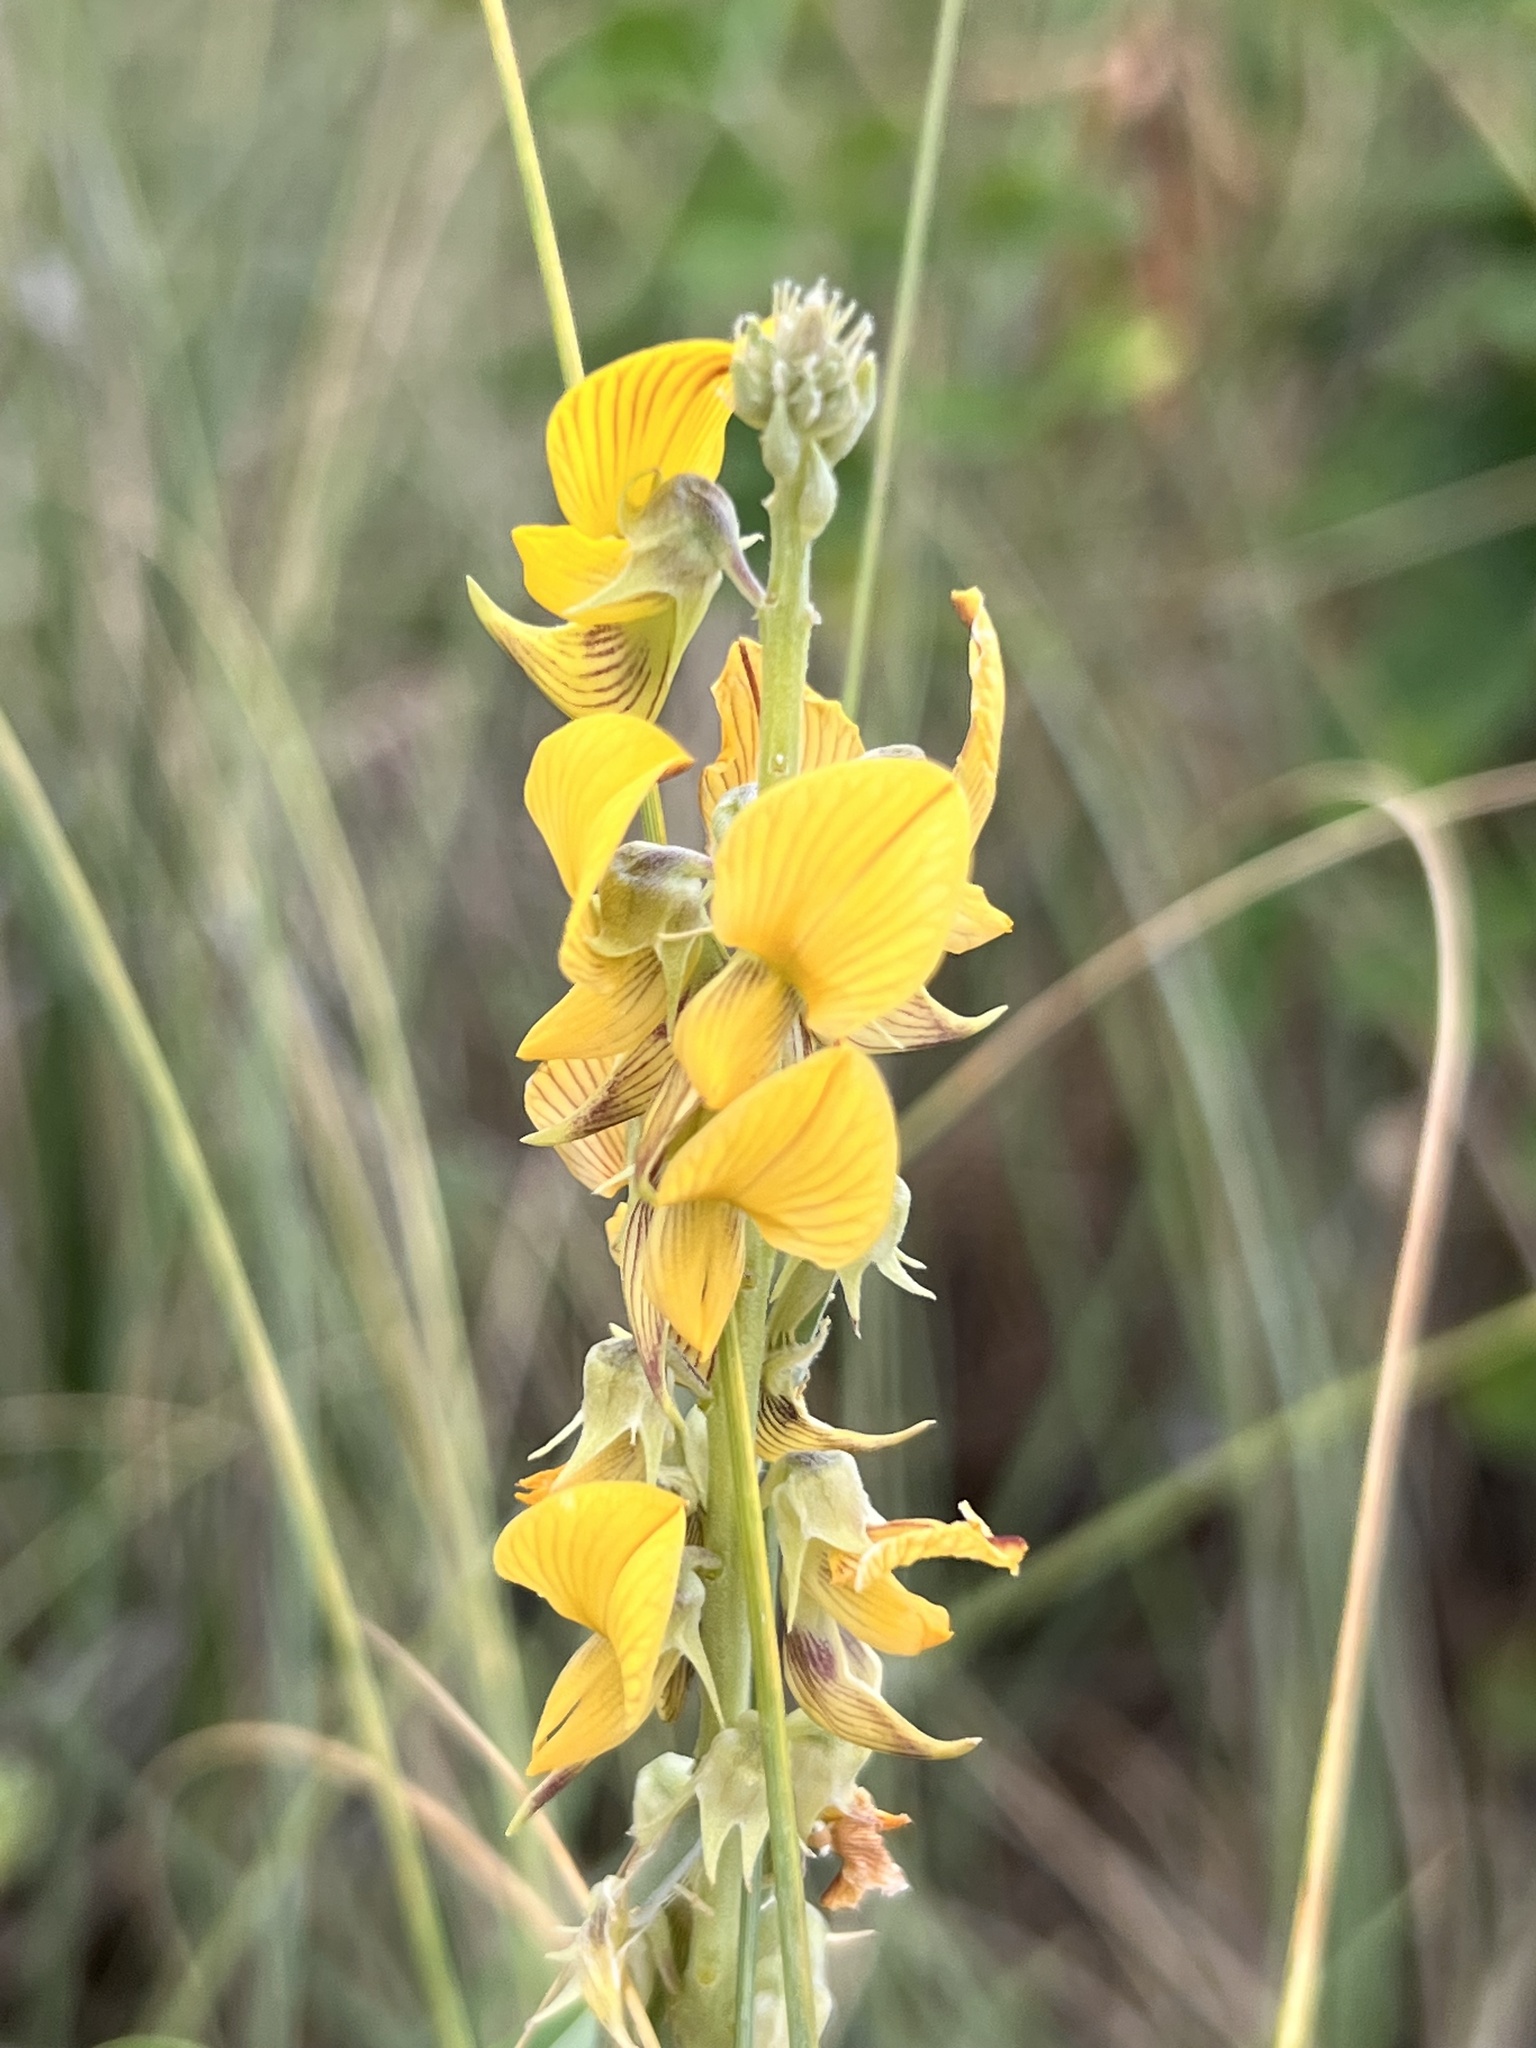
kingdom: Plantae
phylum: Tracheophyta
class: Magnoliopsida
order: Fabales
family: Fabaceae
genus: Crotalaria
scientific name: Crotalaria pallida
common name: Smooth rattlebox
